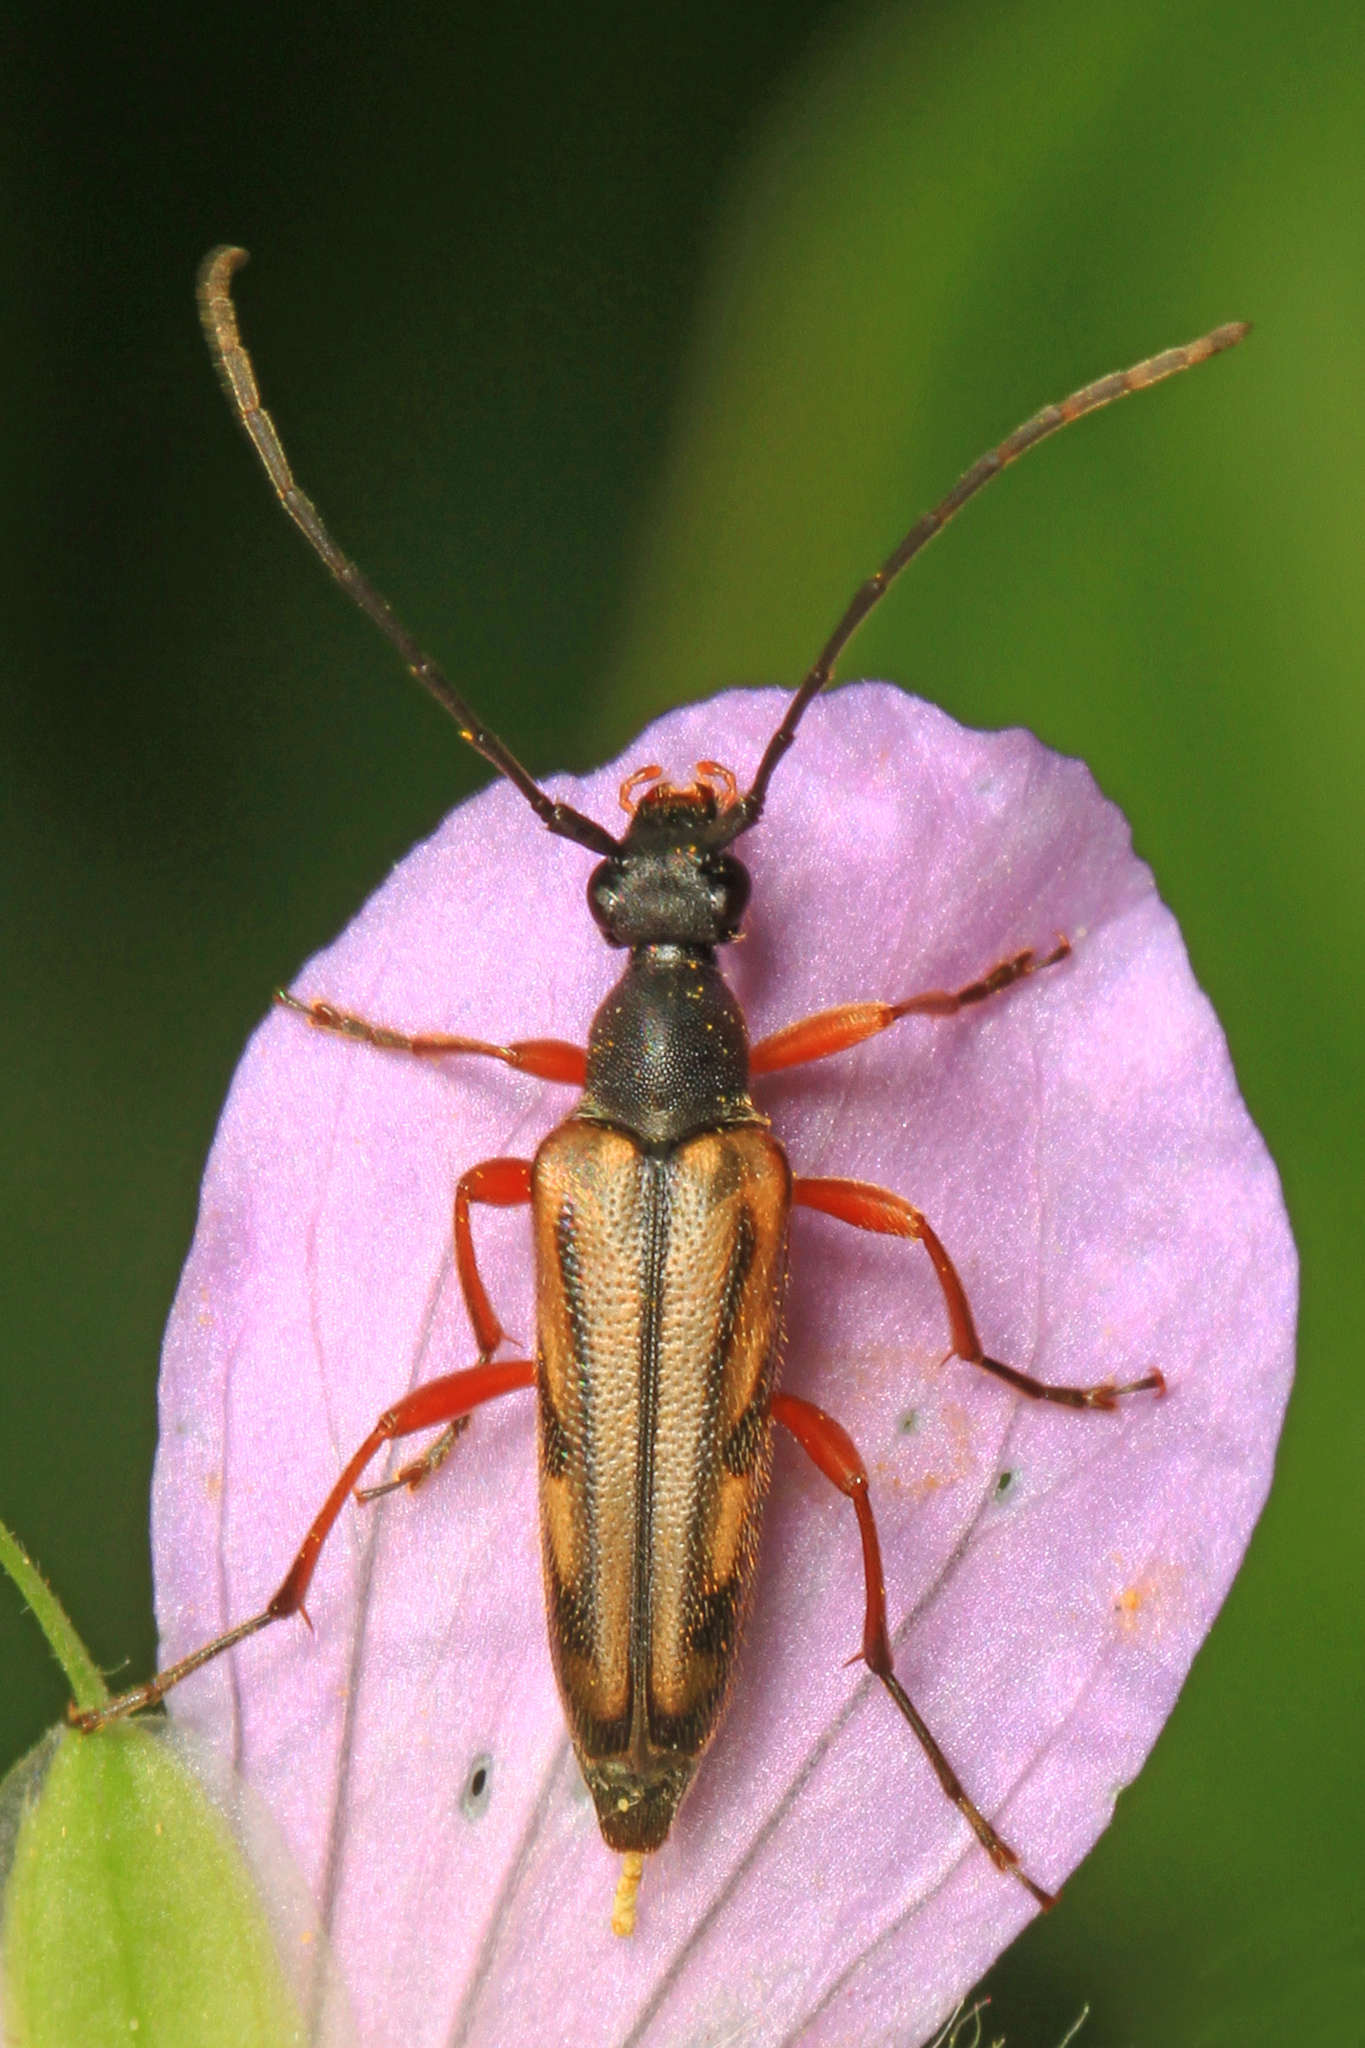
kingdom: Animalia
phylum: Arthropoda
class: Insecta
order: Coleoptera
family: Cerambycidae
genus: Analeptura
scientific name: Analeptura lineola
